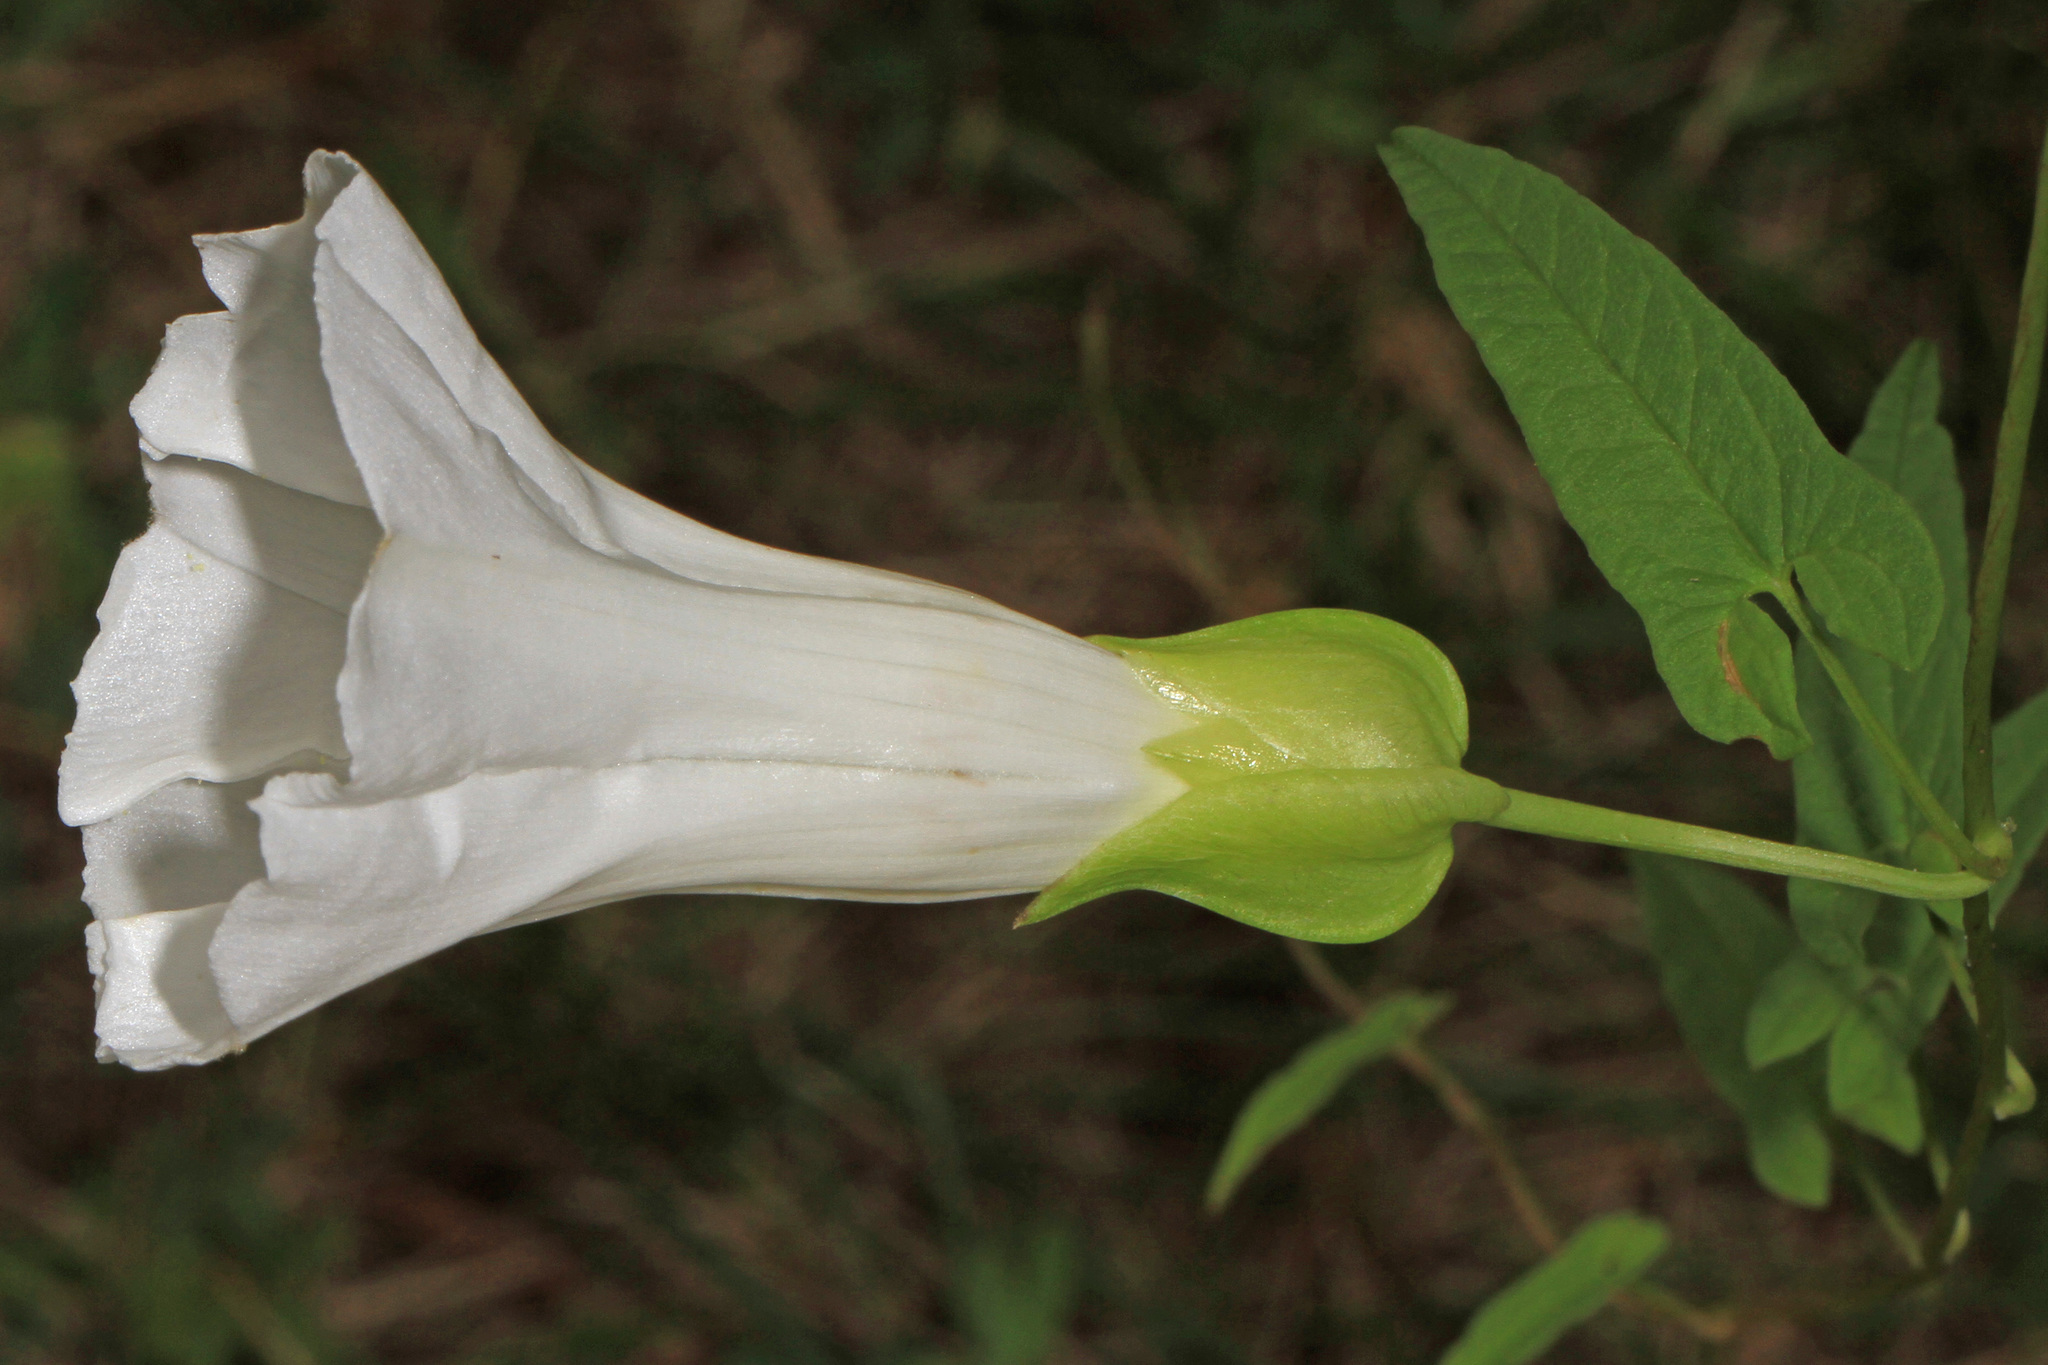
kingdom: Plantae
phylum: Tracheophyta
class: Magnoliopsida
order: Solanales
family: Convolvulaceae
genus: Calystegia
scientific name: Calystegia sepium
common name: Hedge bindweed
